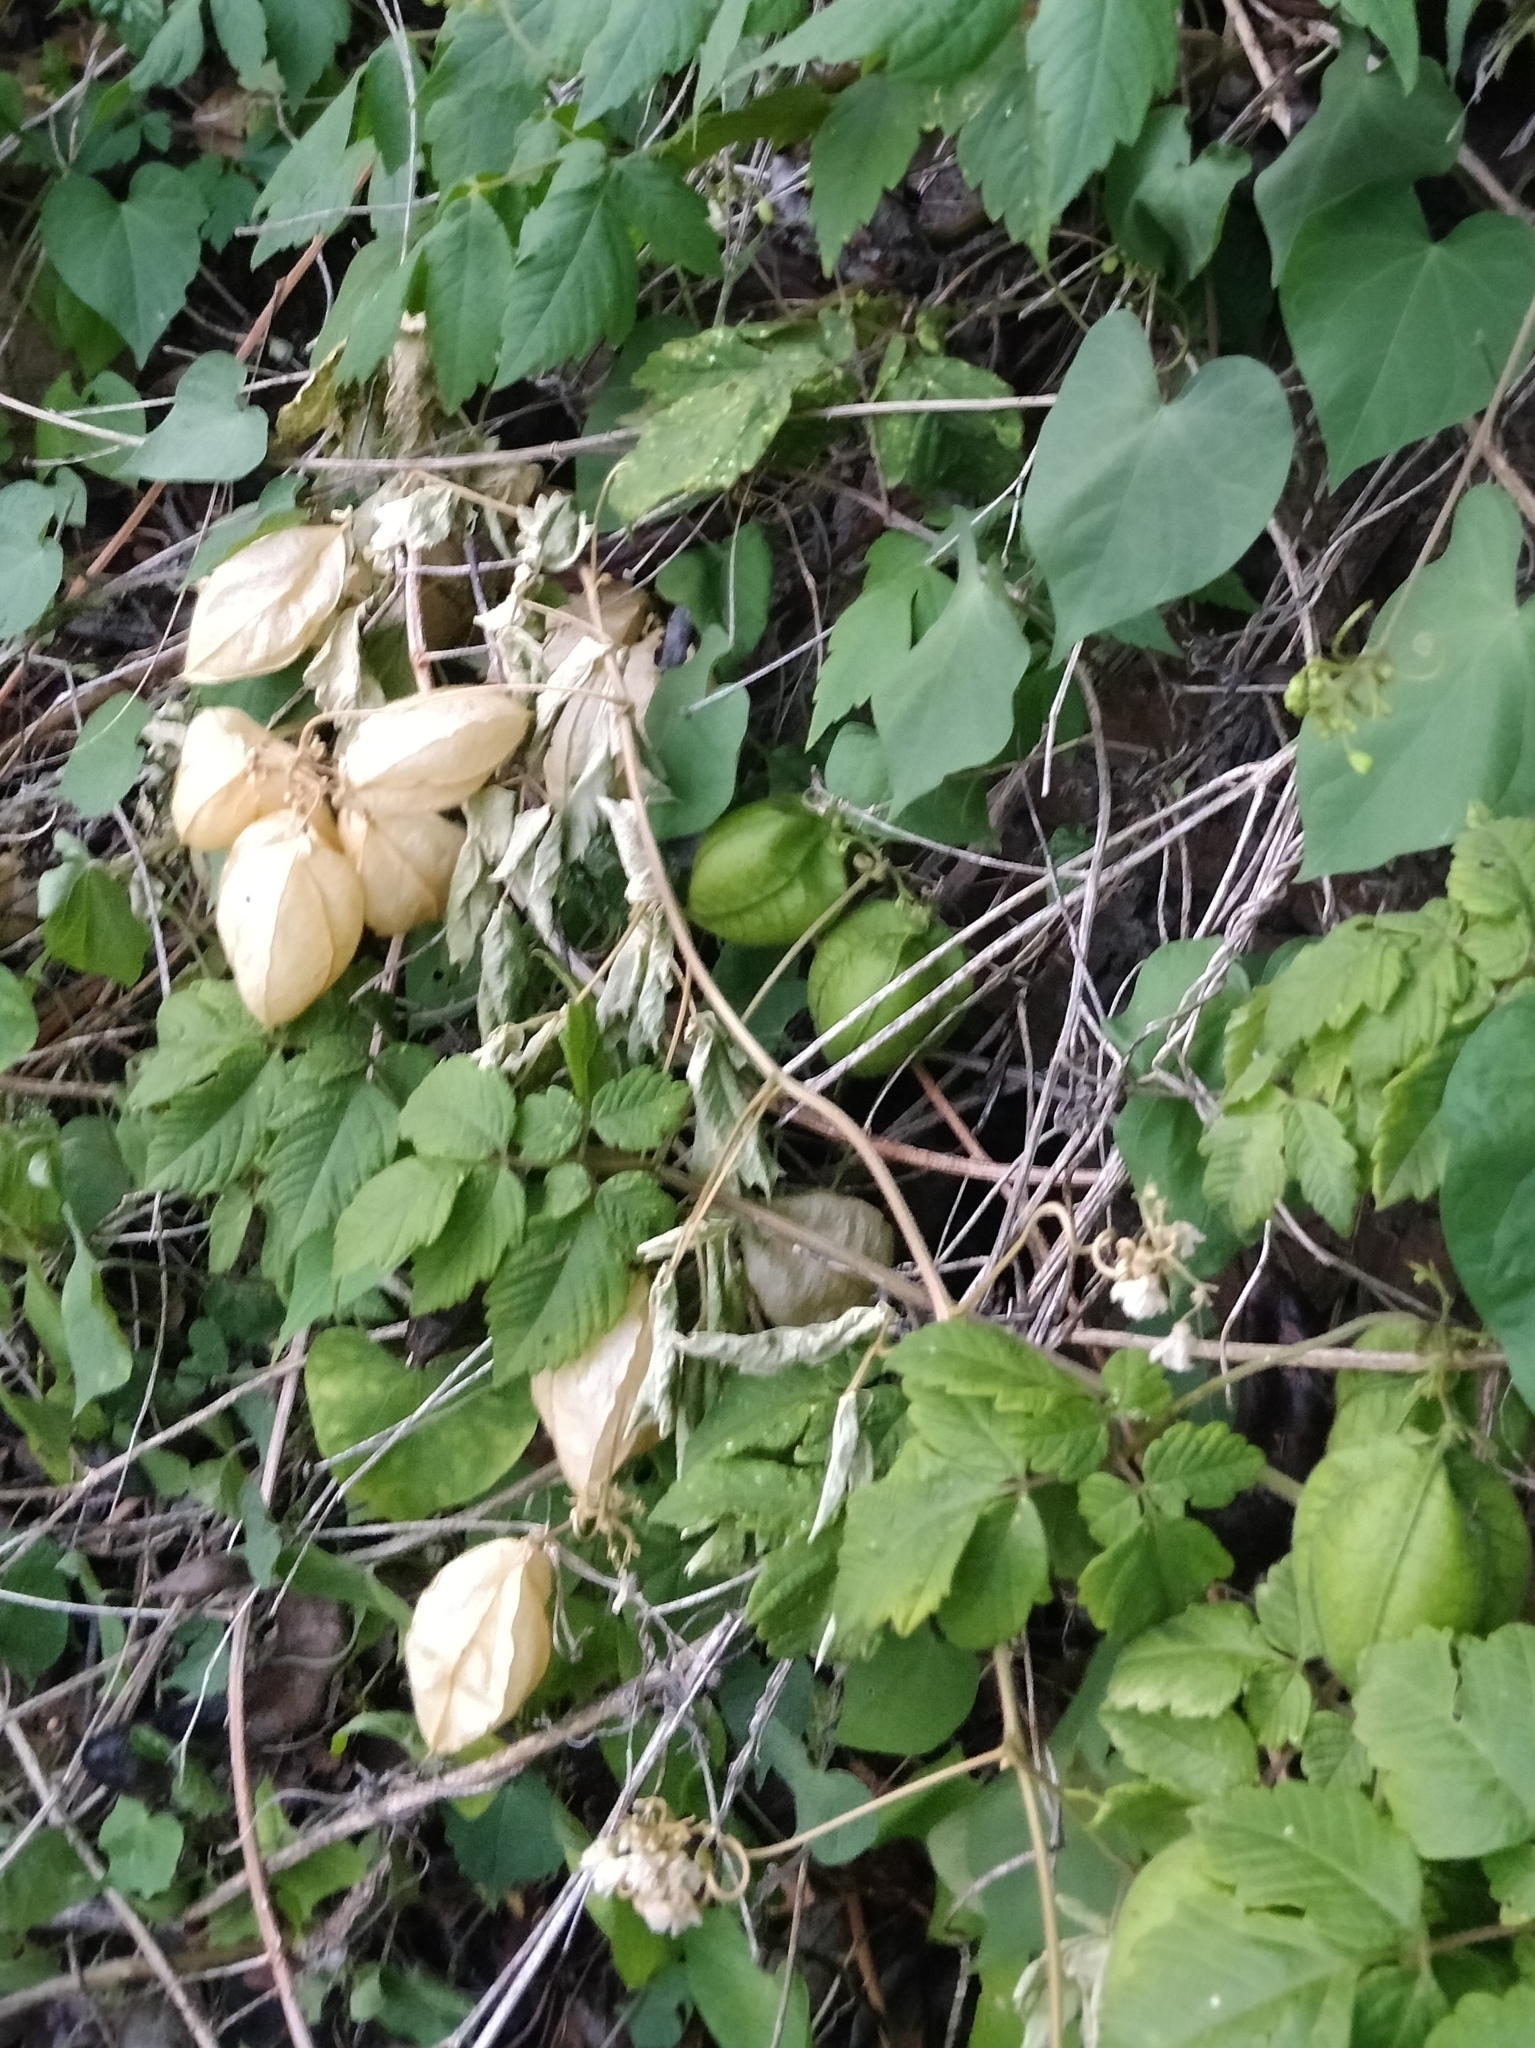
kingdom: Plantae
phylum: Tracheophyta
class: Magnoliopsida
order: Sapindales
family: Sapindaceae
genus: Cardiospermum
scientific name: Cardiospermum grandiflorum
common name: Balloon vine
